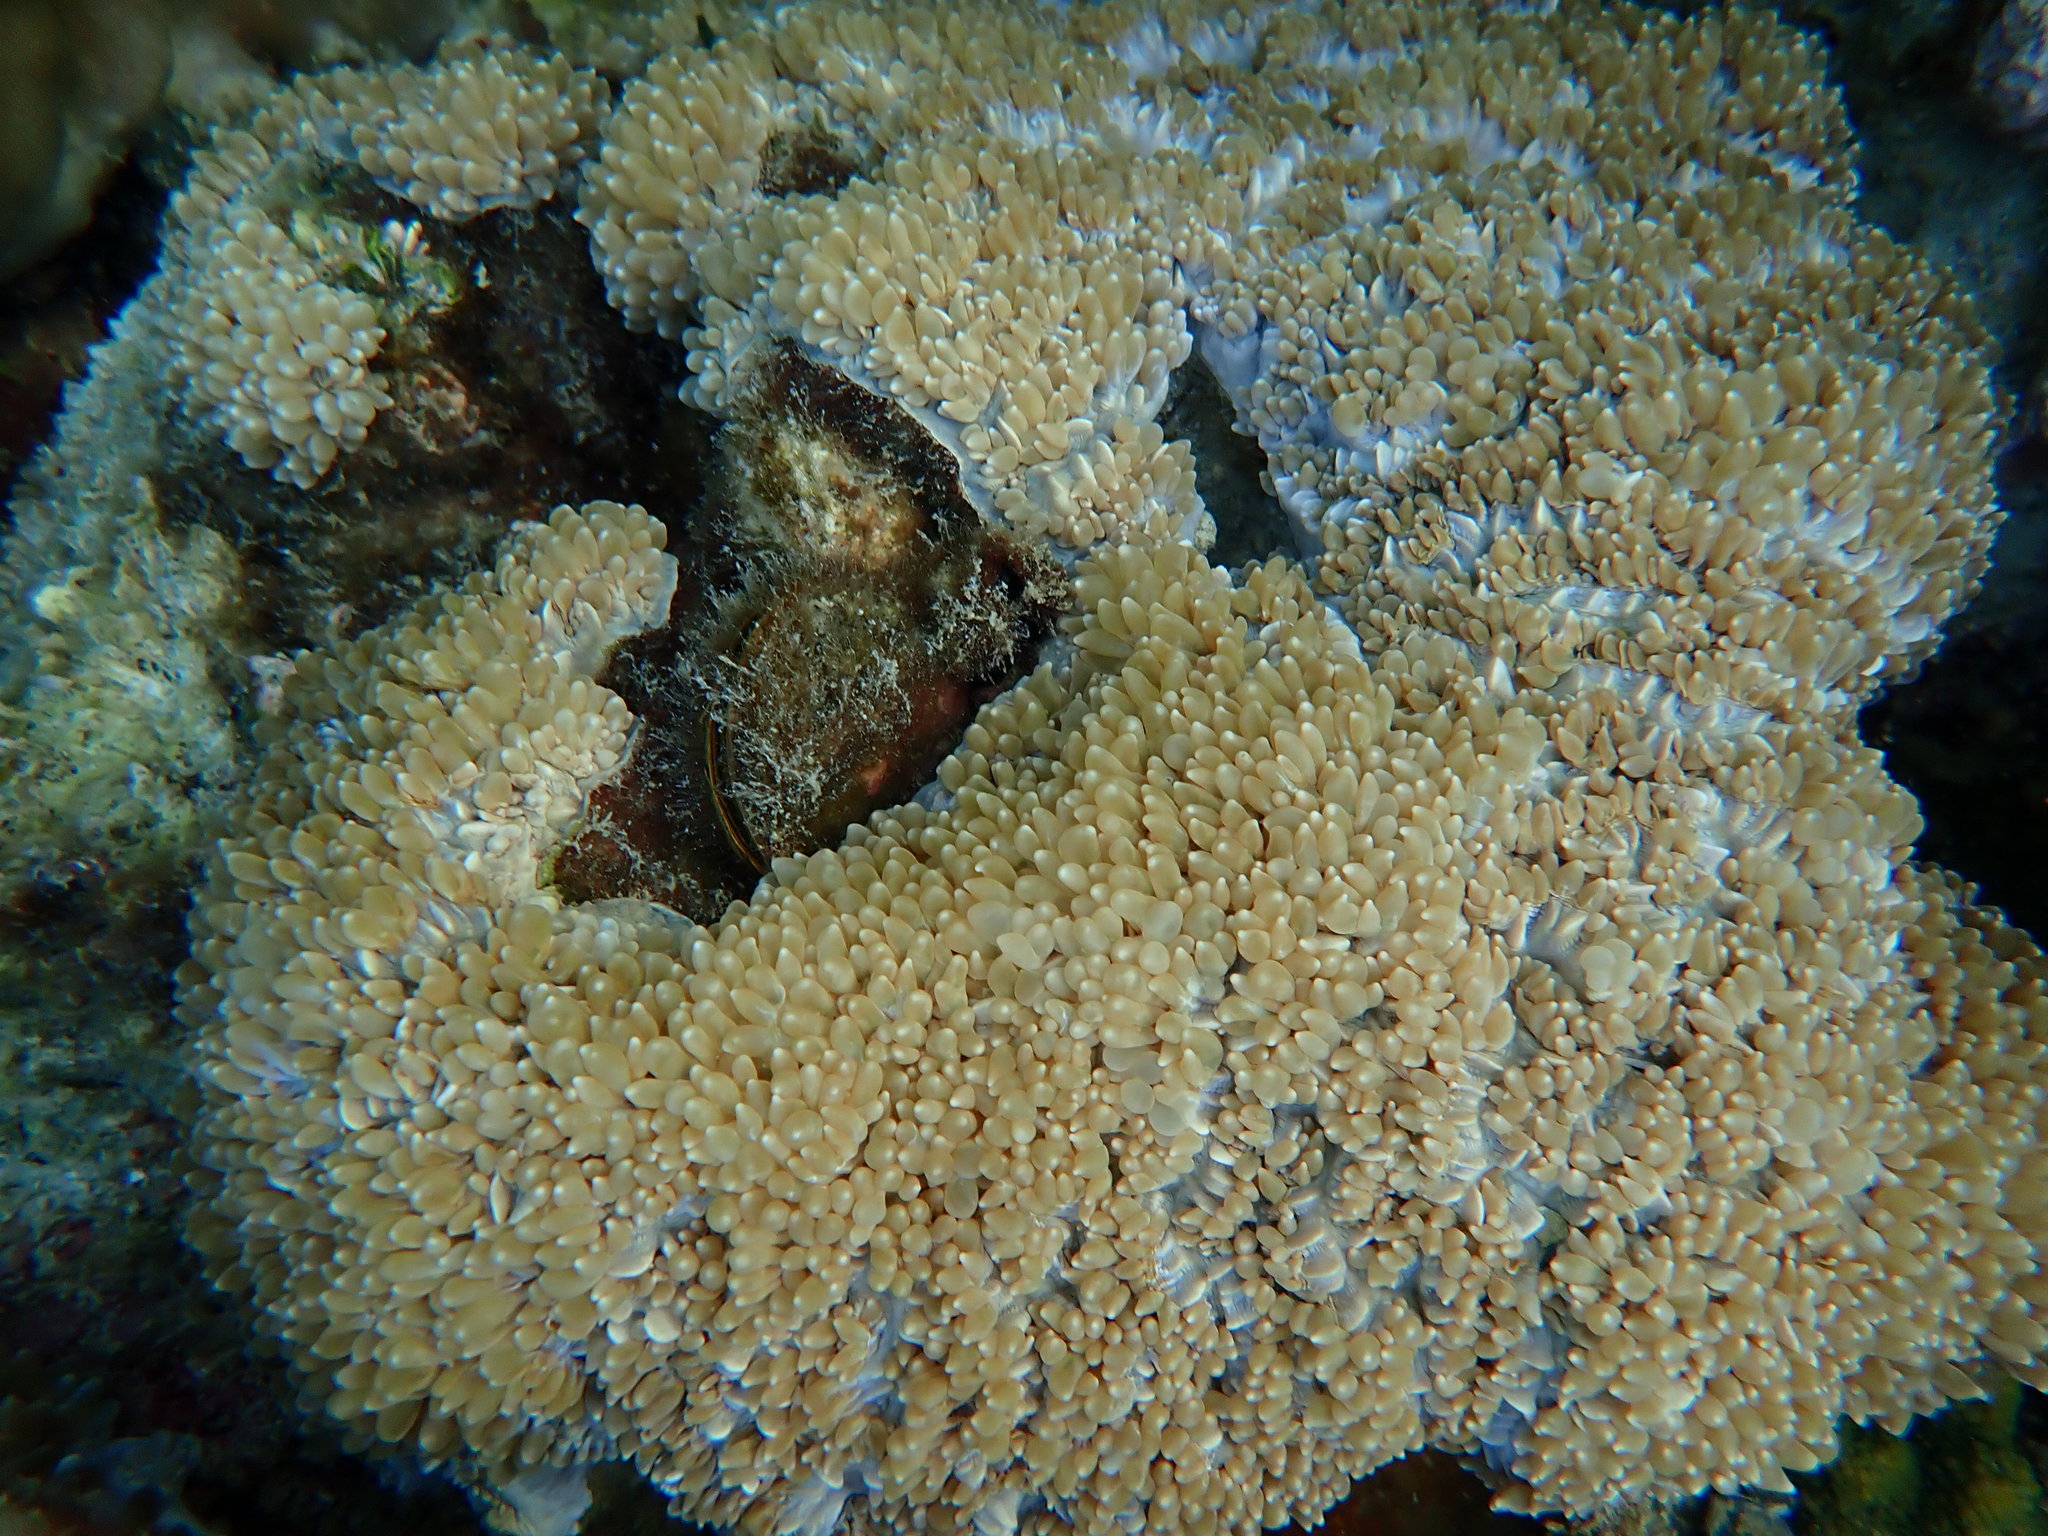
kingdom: Animalia
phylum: Cnidaria
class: Anthozoa
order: Scleractinia
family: Plerogyridae
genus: Physogyra
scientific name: Physogyra lichtensteini
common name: Tipped bubblegum coral
